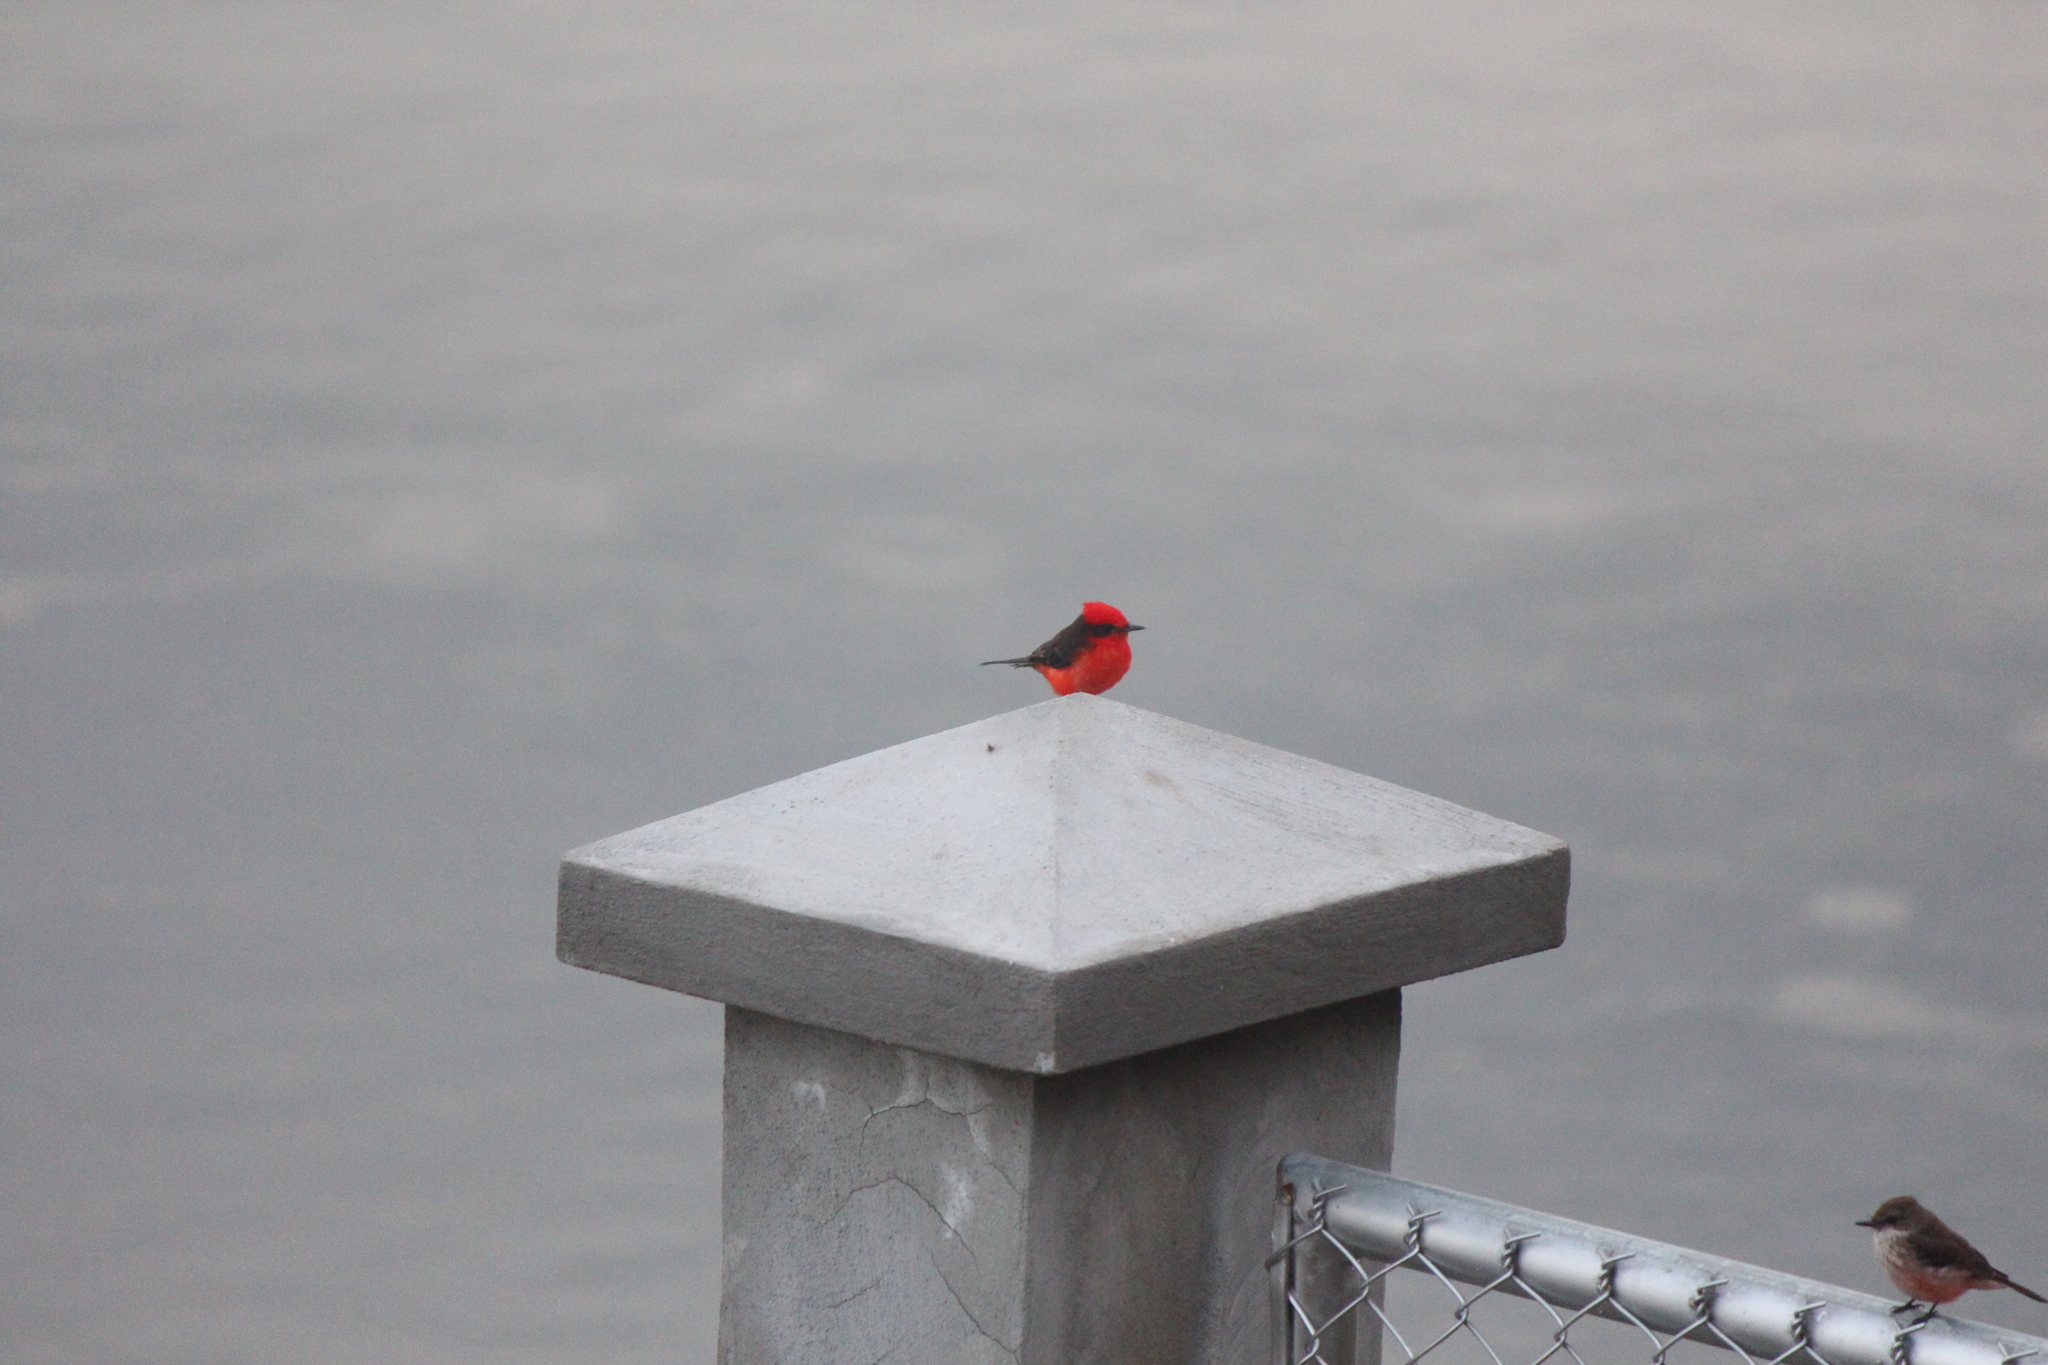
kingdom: Animalia
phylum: Chordata
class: Aves
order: Passeriformes
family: Tyrannidae
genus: Pyrocephalus
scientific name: Pyrocephalus rubinus
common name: Vermilion flycatcher
